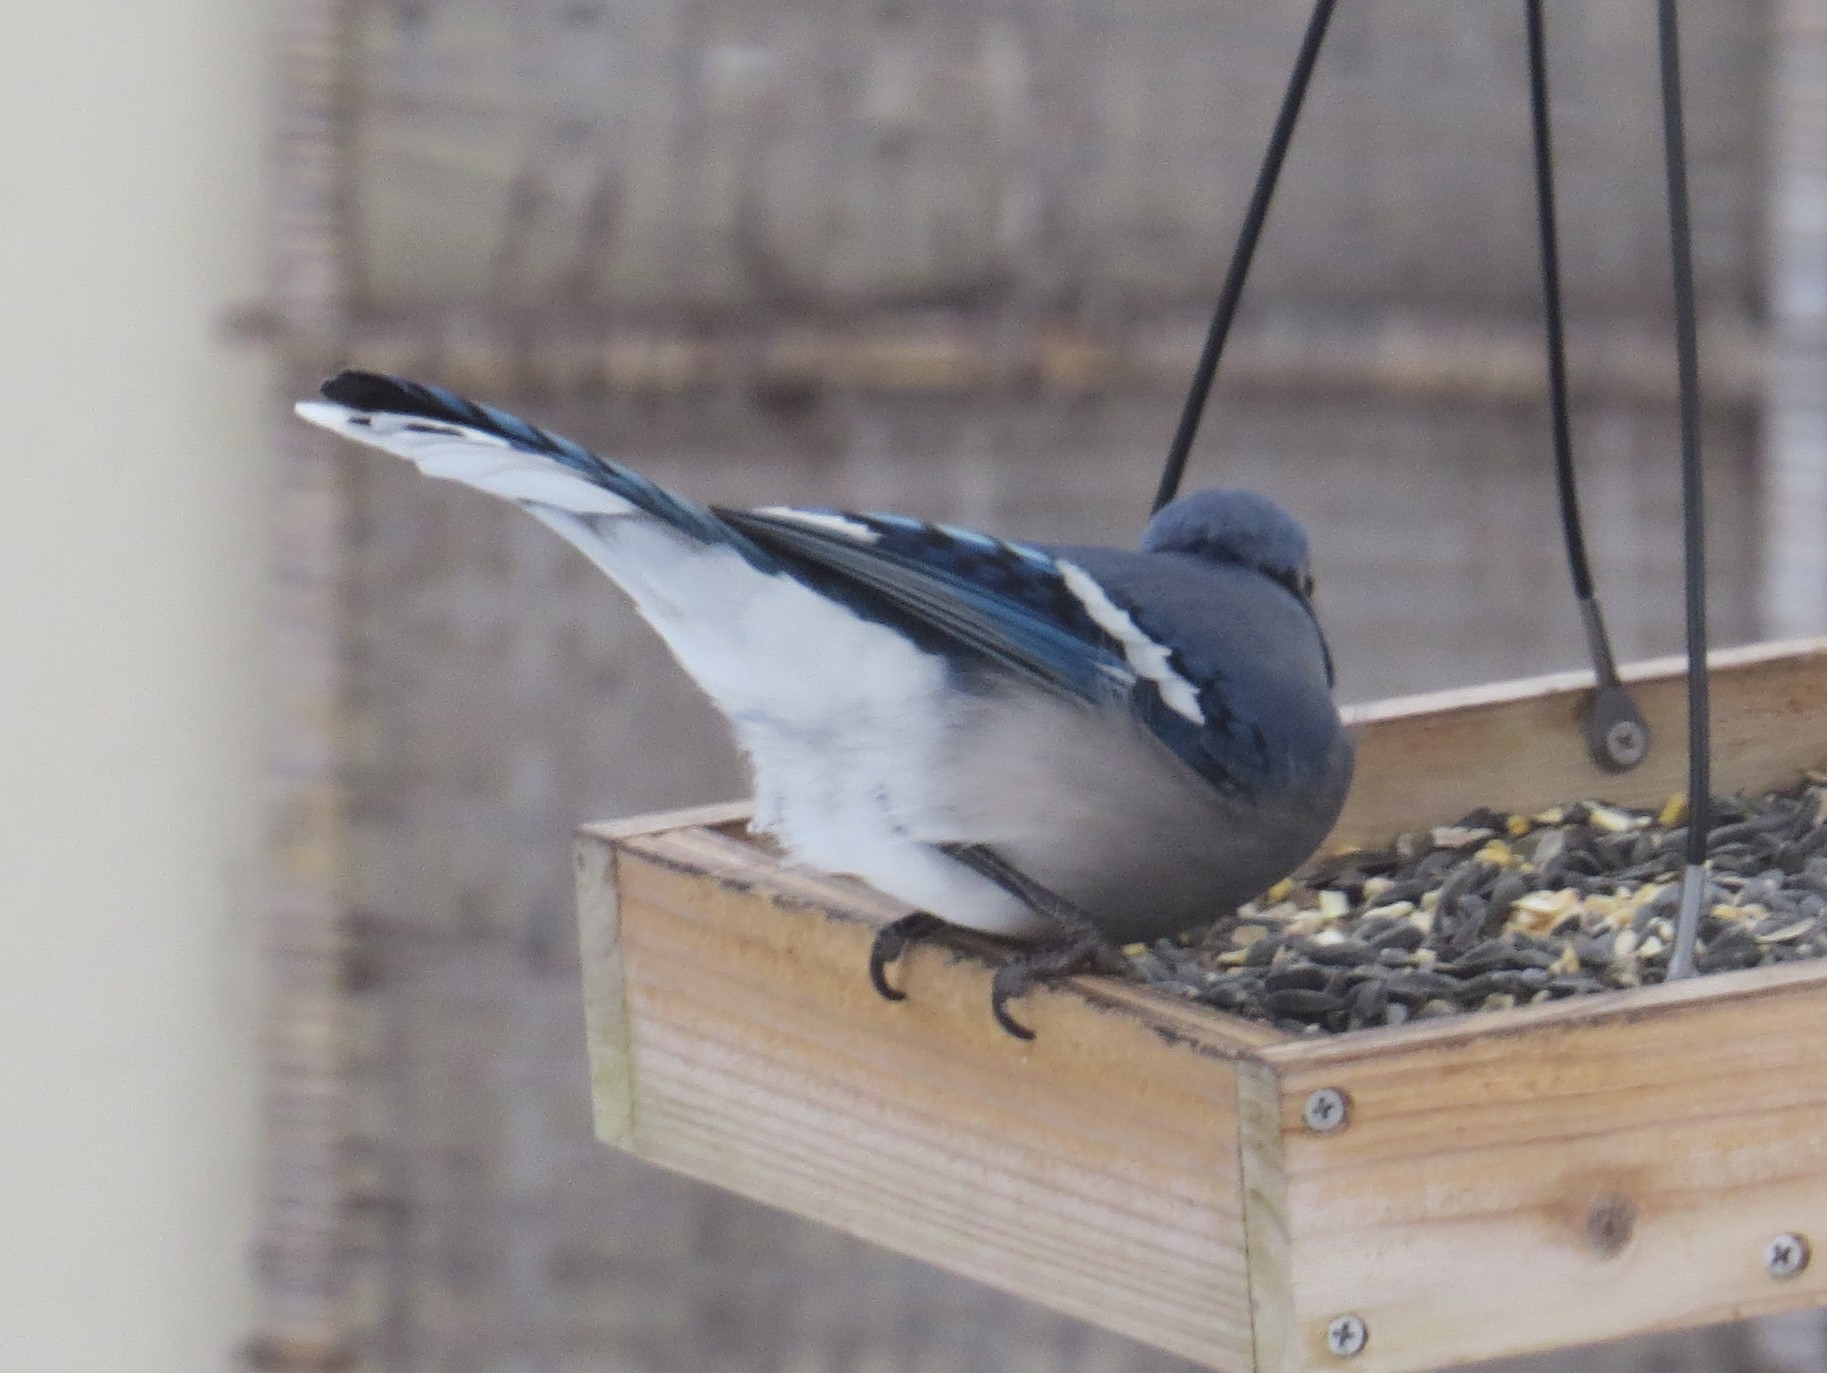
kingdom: Animalia
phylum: Chordata
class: Aves
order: Passeriformes
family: Corvidae
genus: Cyanocitta
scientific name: Cyanocitta cristata
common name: Blue jay
